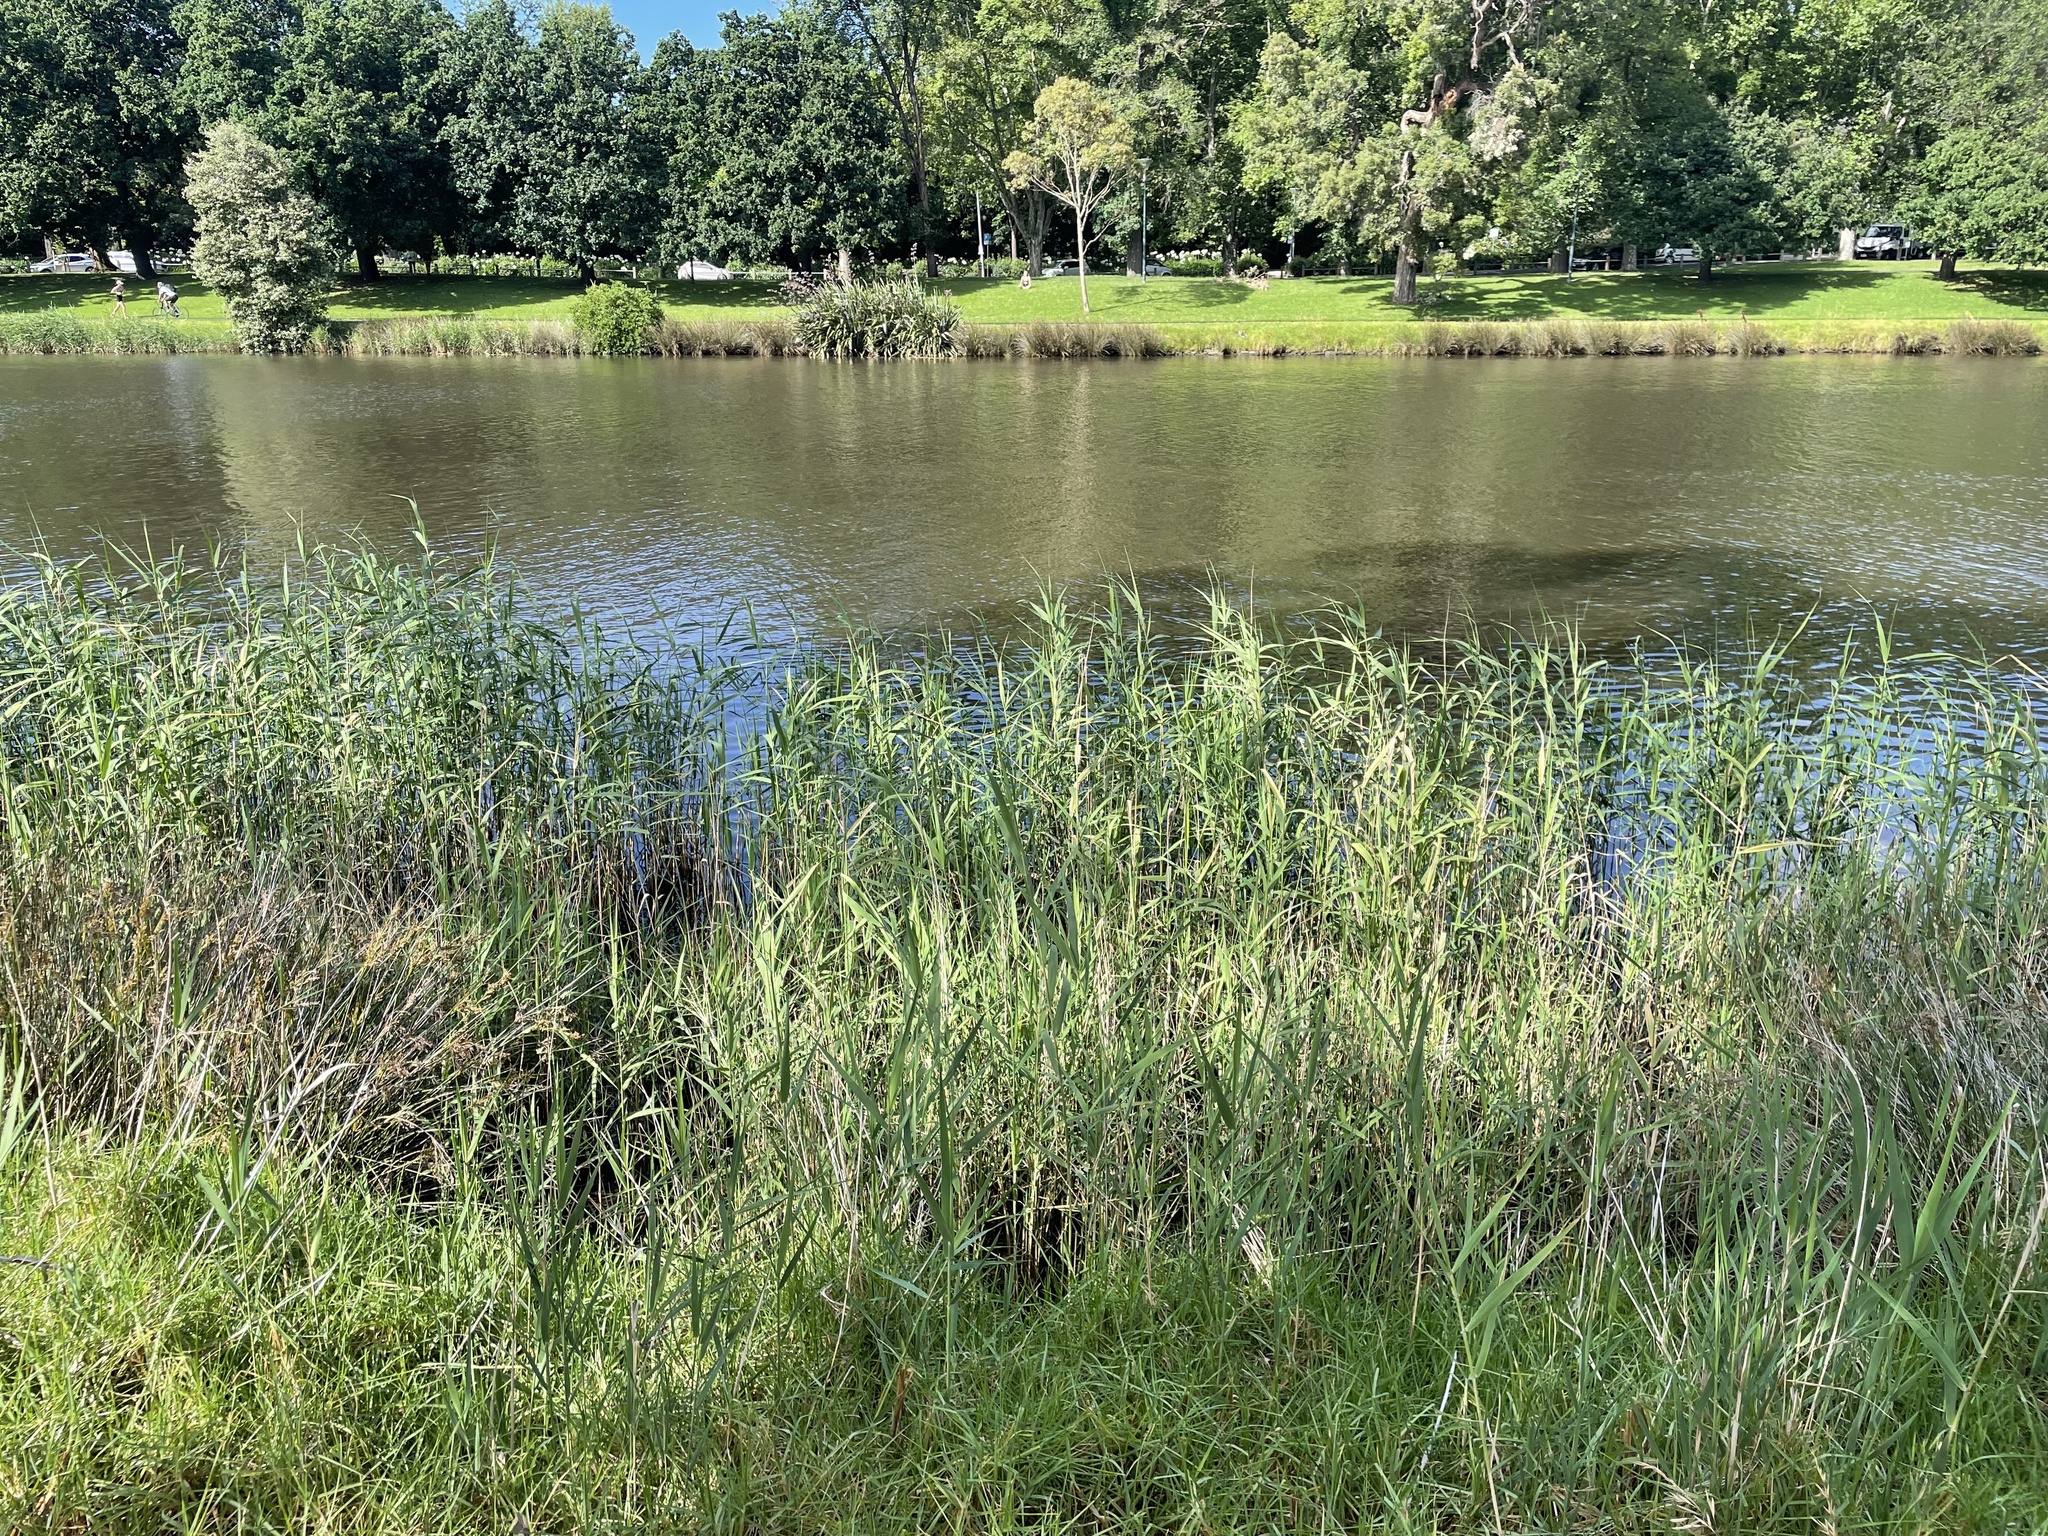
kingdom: Plantae
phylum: Tracheophyta
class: Liliopsida
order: Poales
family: Poaceae
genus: Phragmites
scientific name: Phragmites australis
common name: Common reed
